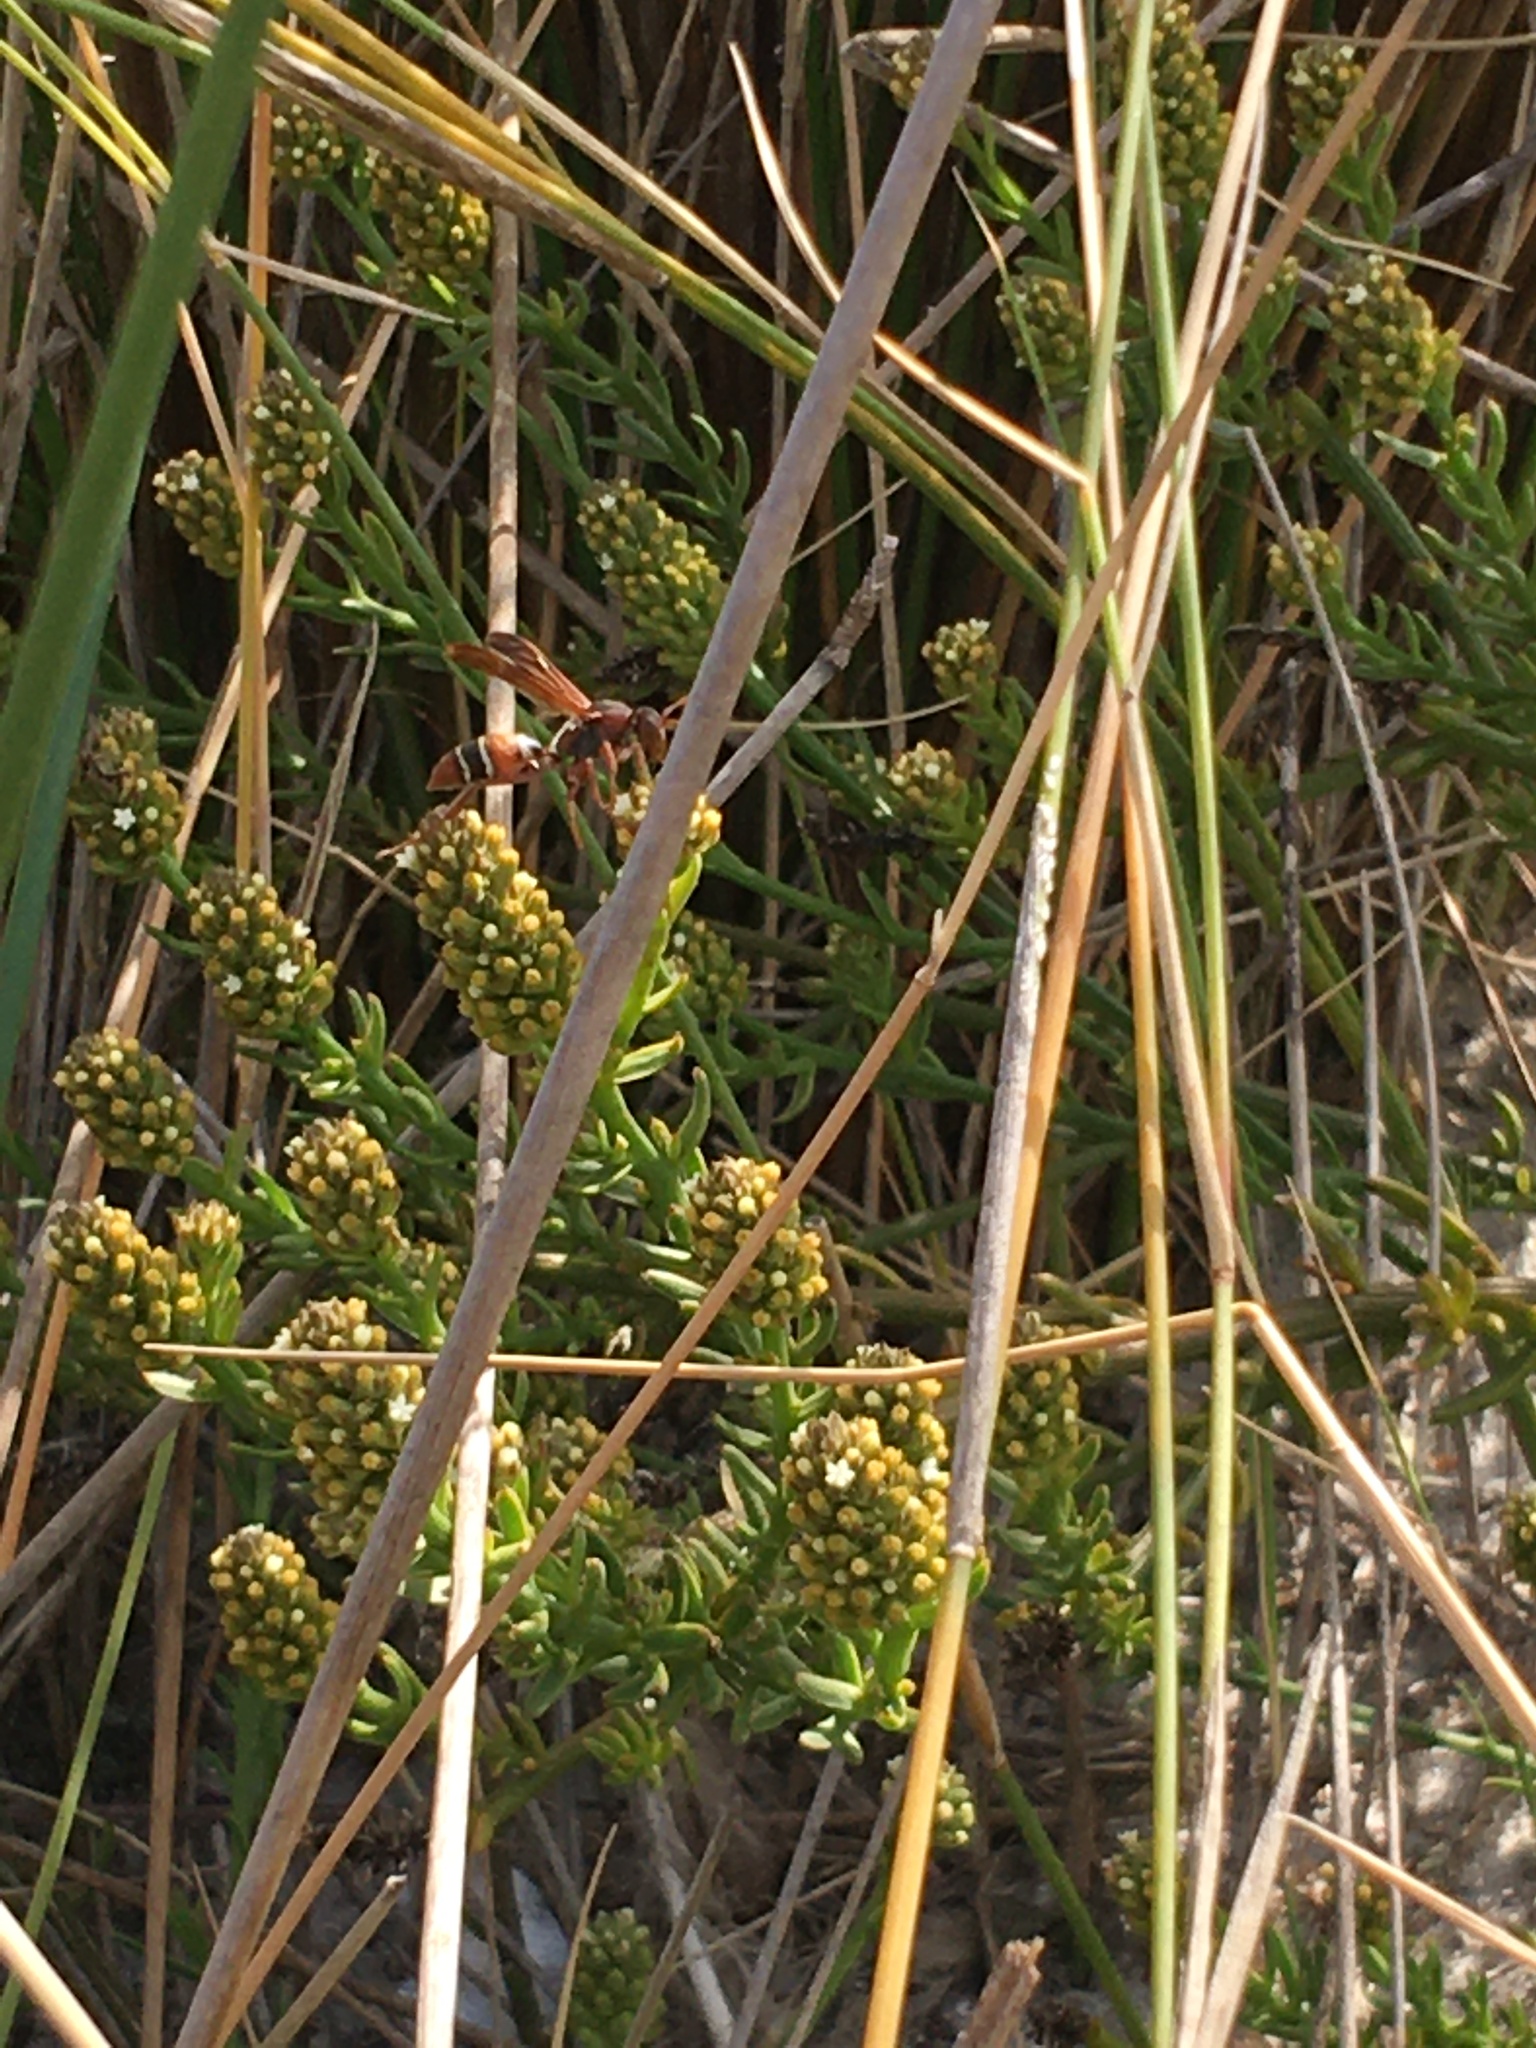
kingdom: Animalia
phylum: Arthropoda
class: Insecta
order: Hymenoptera
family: Eumenidae
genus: Polistes
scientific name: Polistes marginalis
